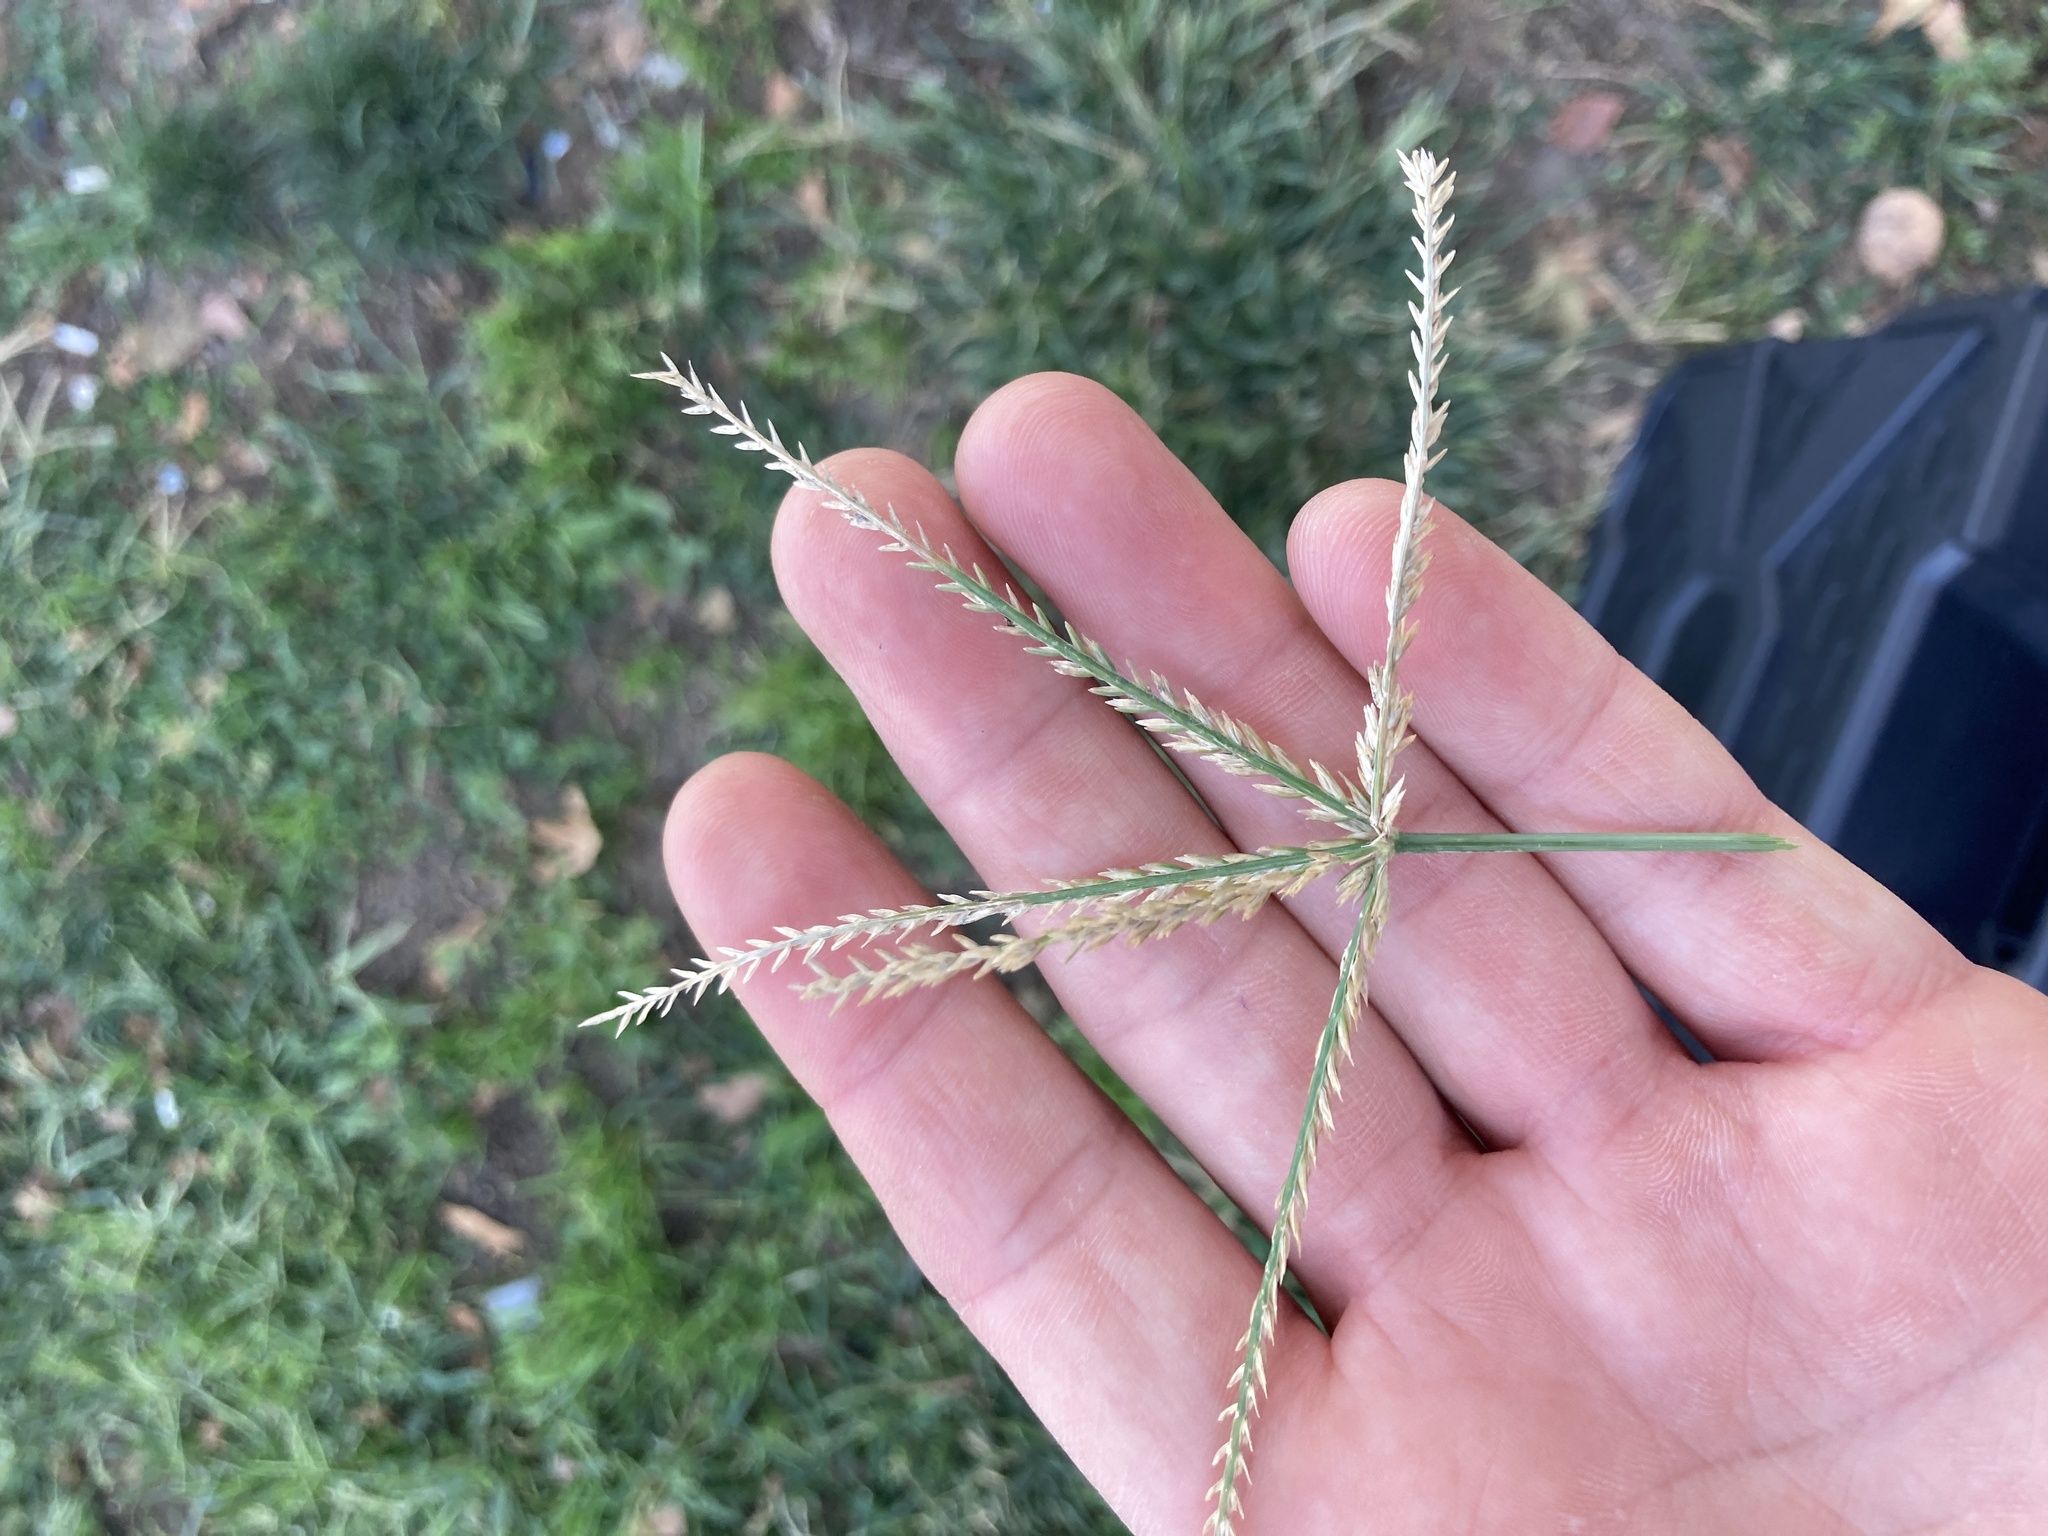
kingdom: Plantae
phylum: Tracheophyta
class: Liliopsida
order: Poales
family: Poaceae
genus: Eleusine
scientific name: Eleusine indica
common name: Yard-grass
